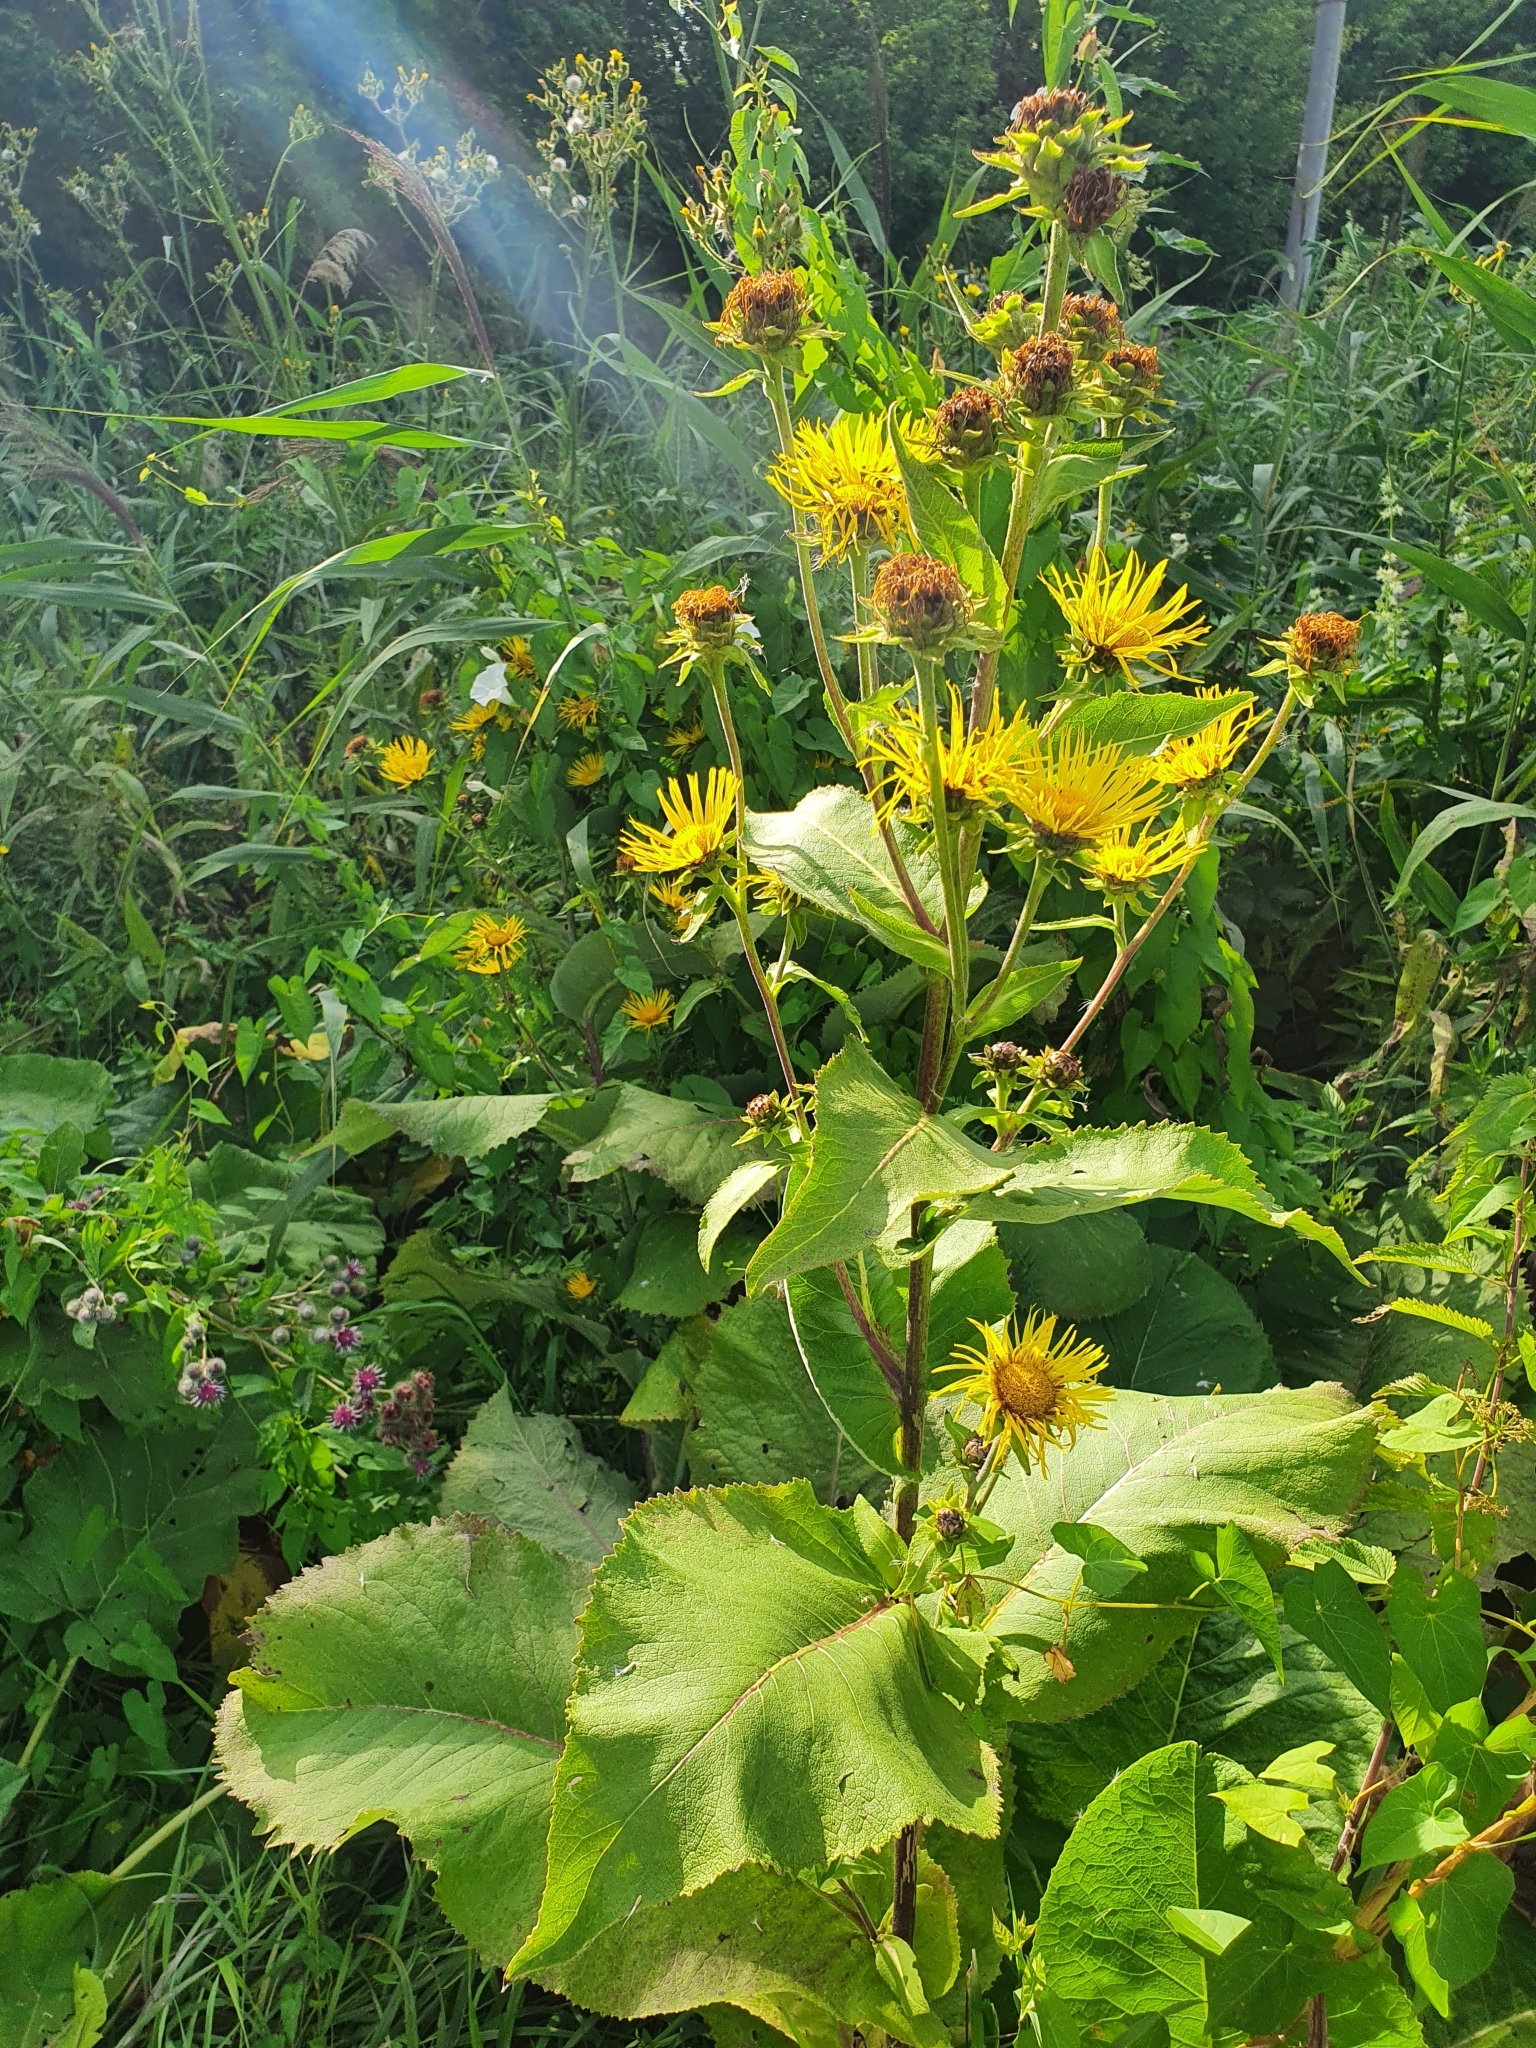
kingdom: Plantae
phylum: Tracheophyta
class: Magnoliopsida
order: Asterales
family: Asteraceae
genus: Inula
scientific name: Inula helenium
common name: Elecampane
